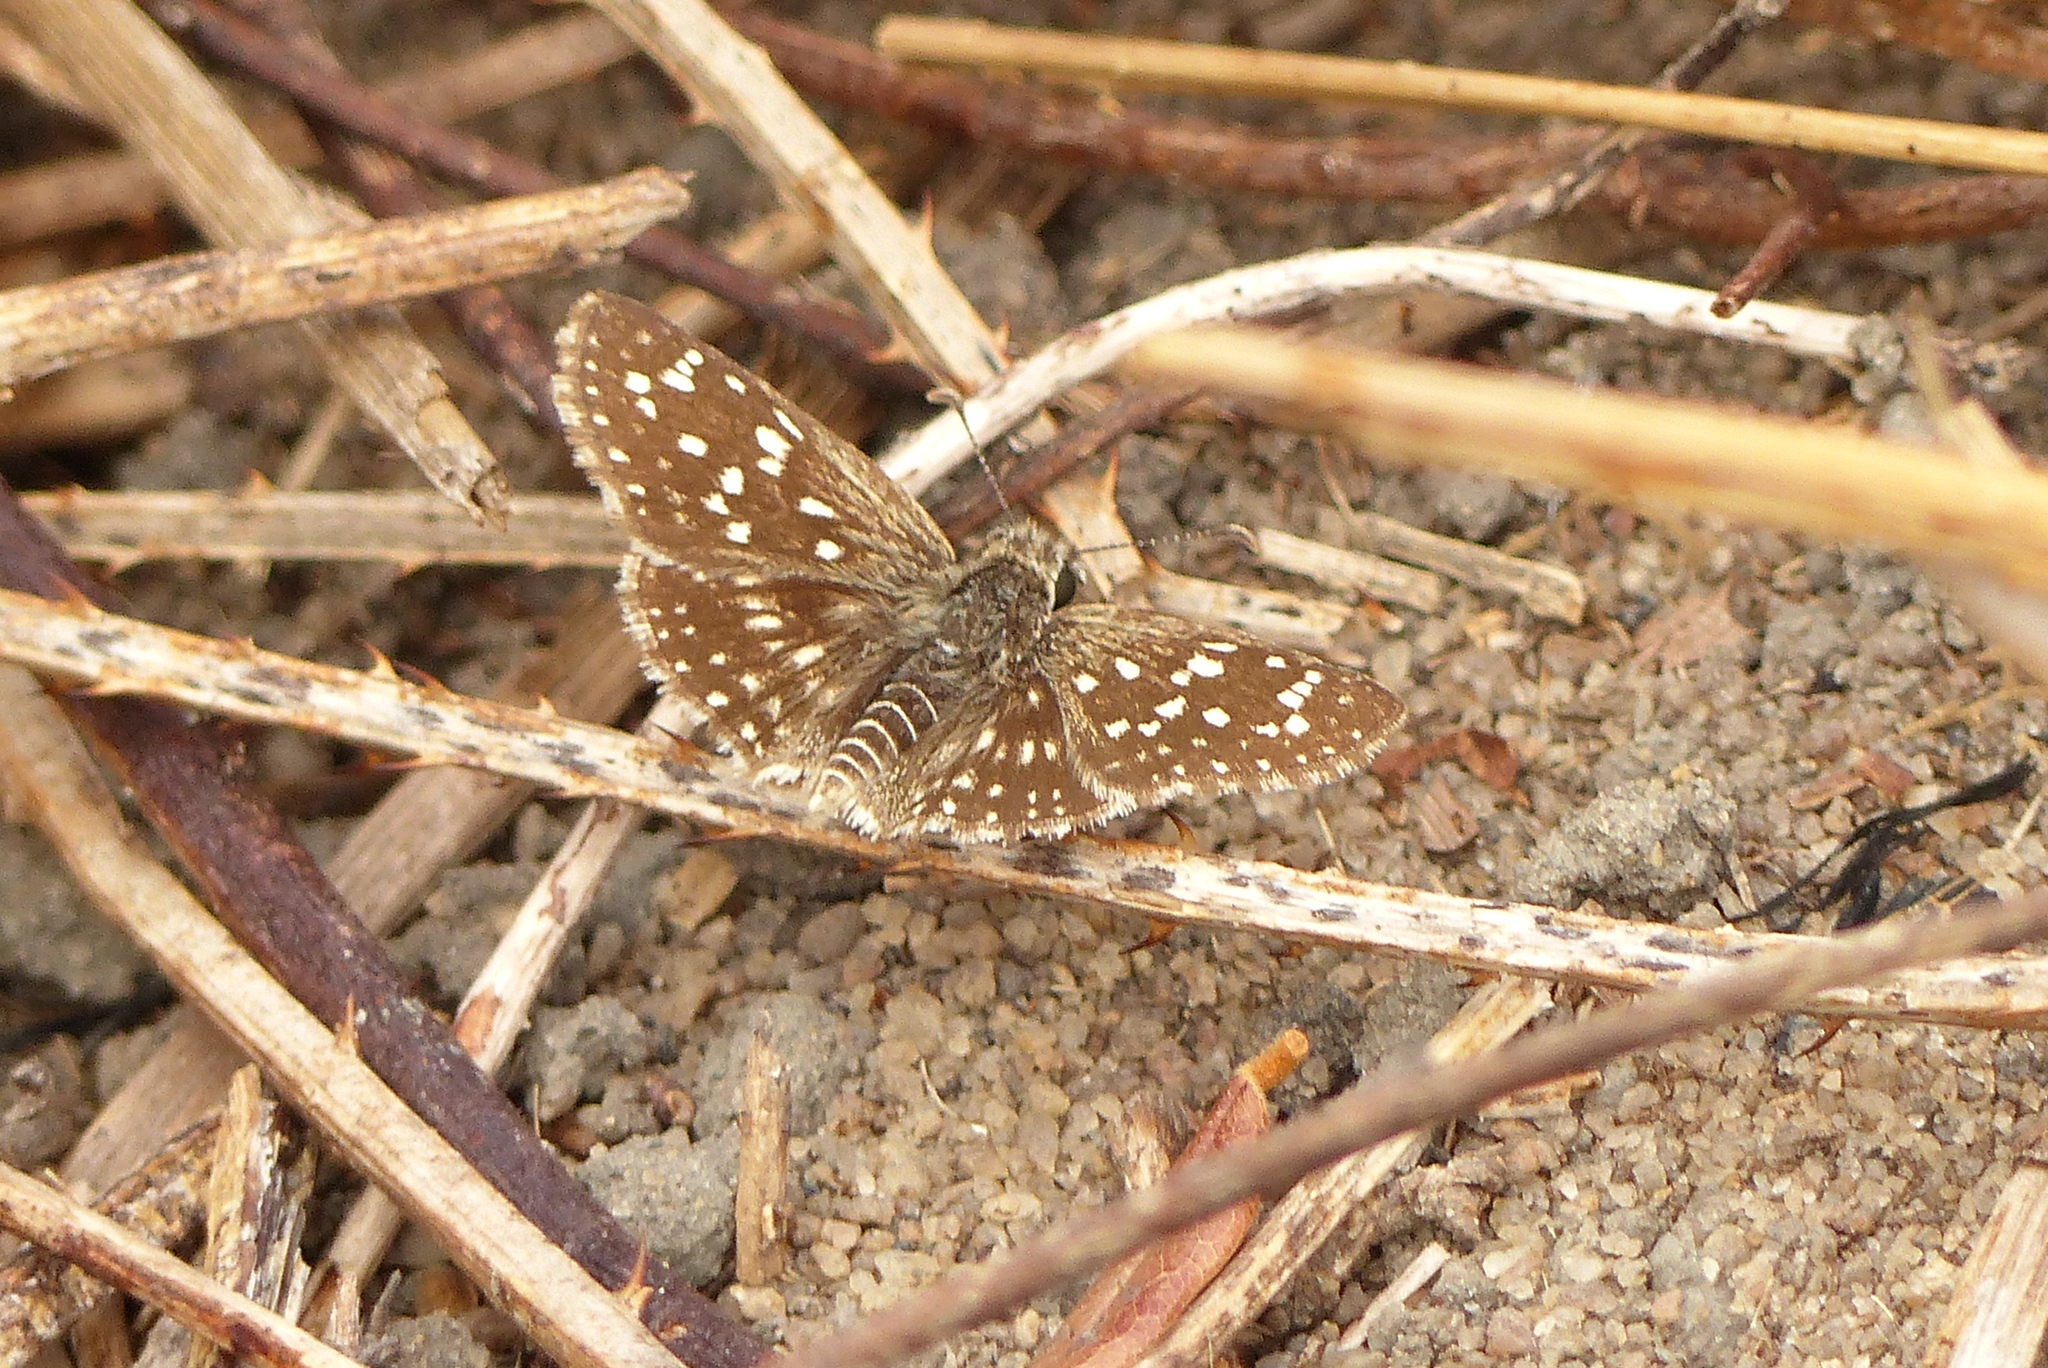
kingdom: Animalia
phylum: Arthropoda
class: Insecta
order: Lepidoptera
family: Hesperiidae
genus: Chirgus
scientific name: Chirgus
